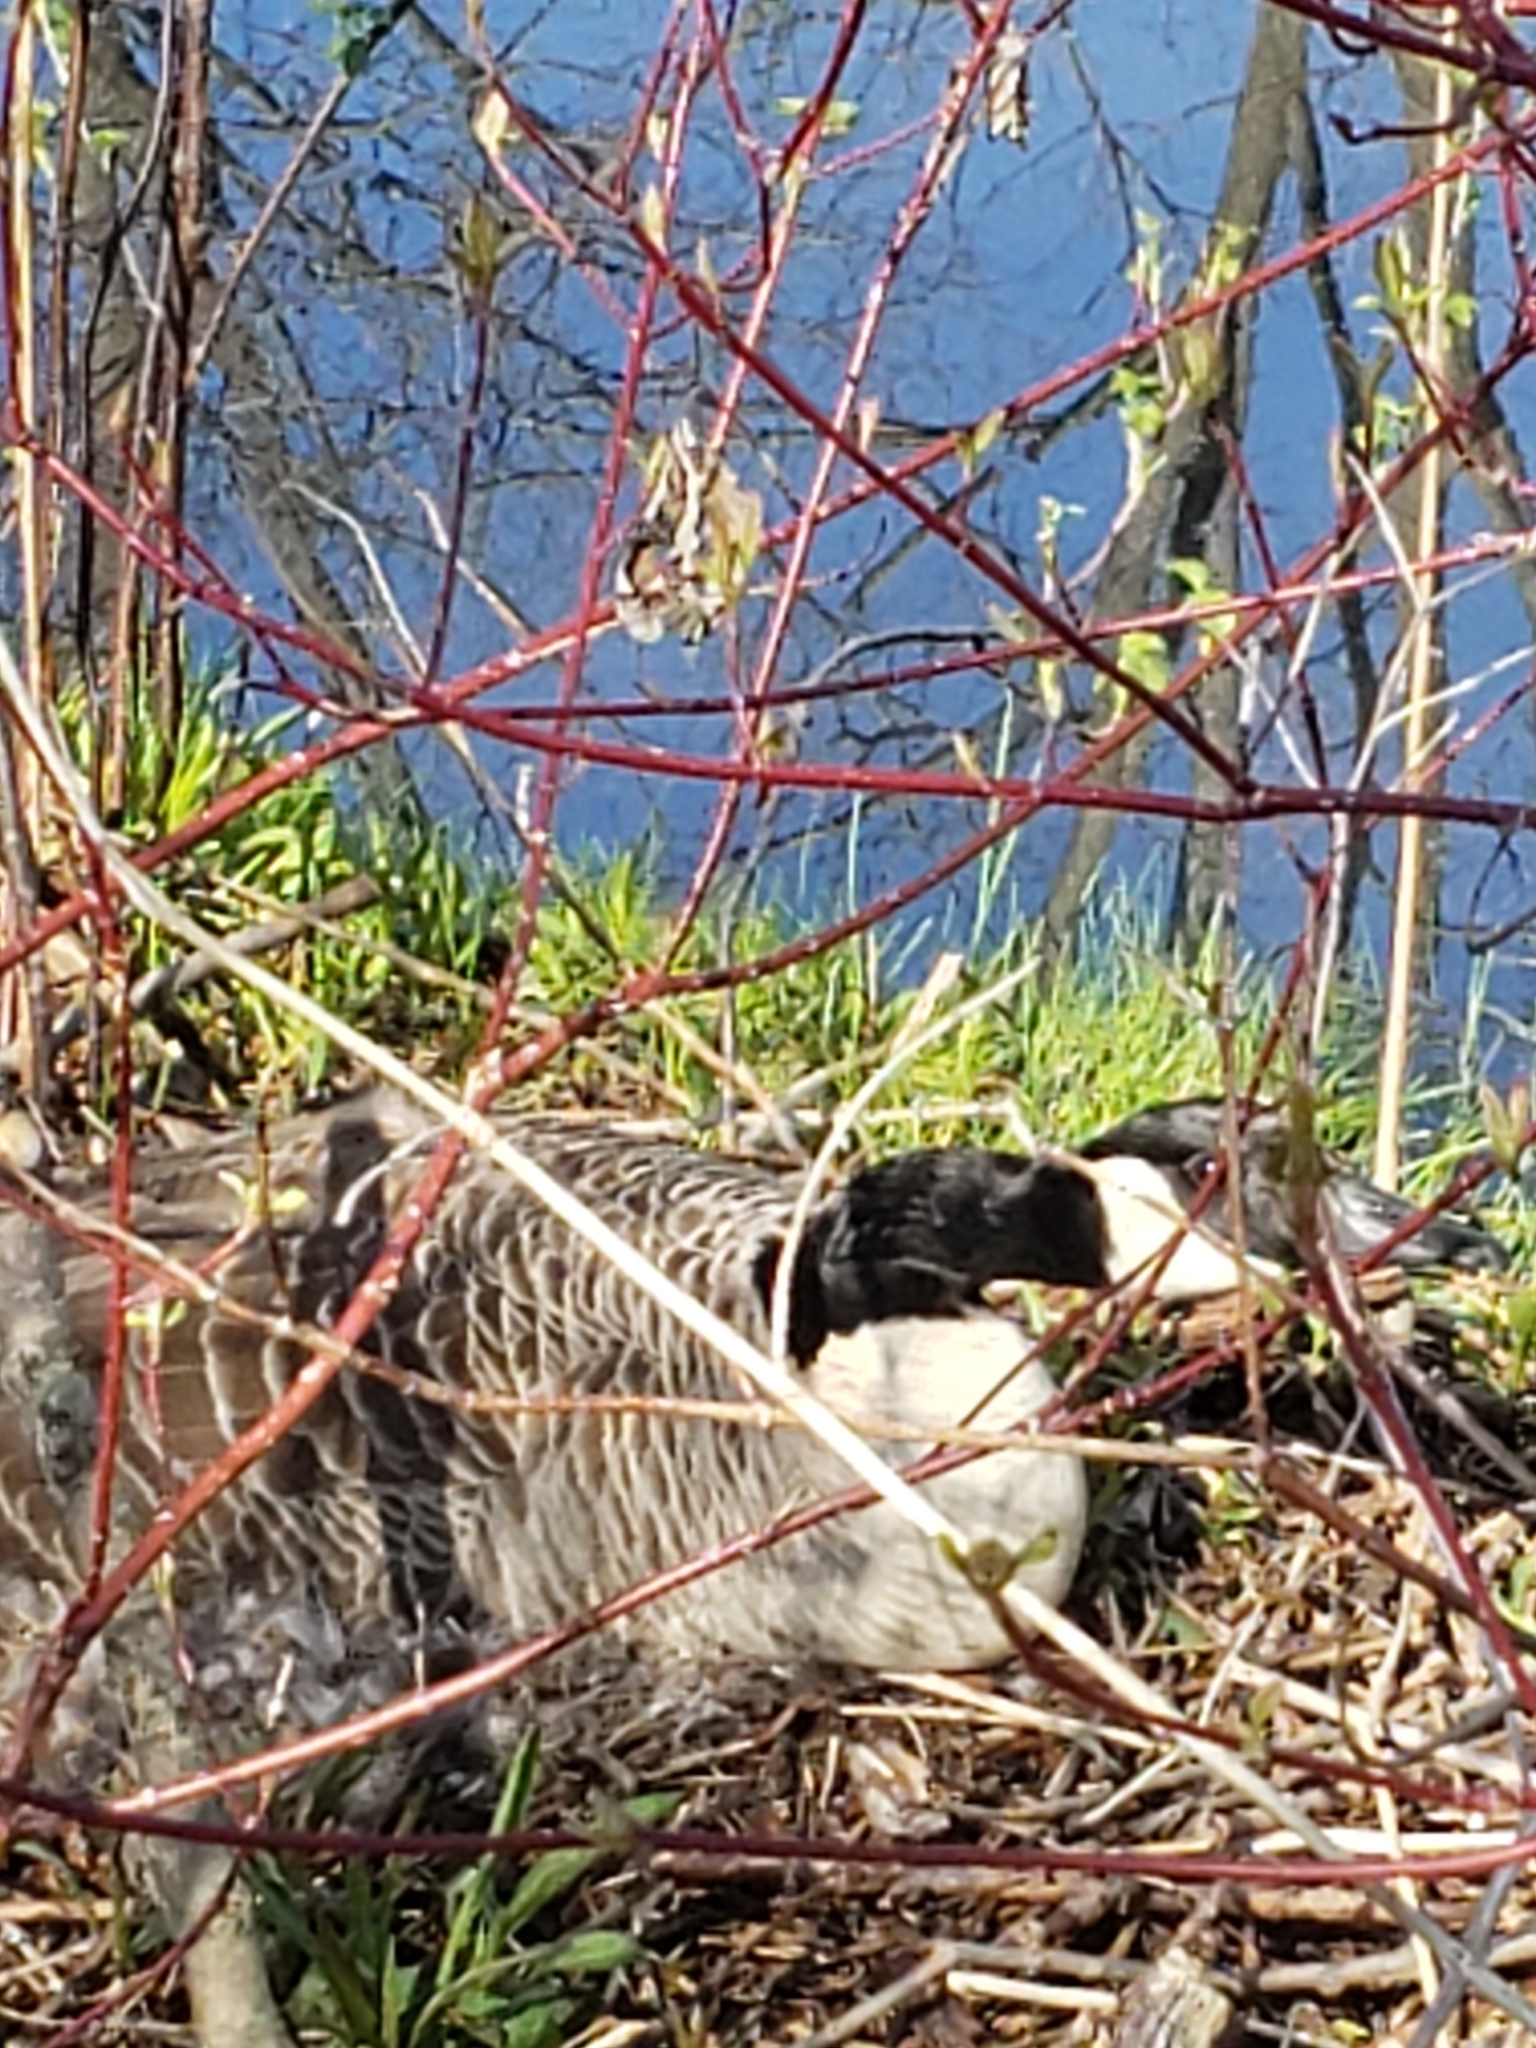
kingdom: Animalia
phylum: Chordata
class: Aves
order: Anseriformes
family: Anatidae
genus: Branta
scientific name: Branta canadensis
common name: Canada goose
